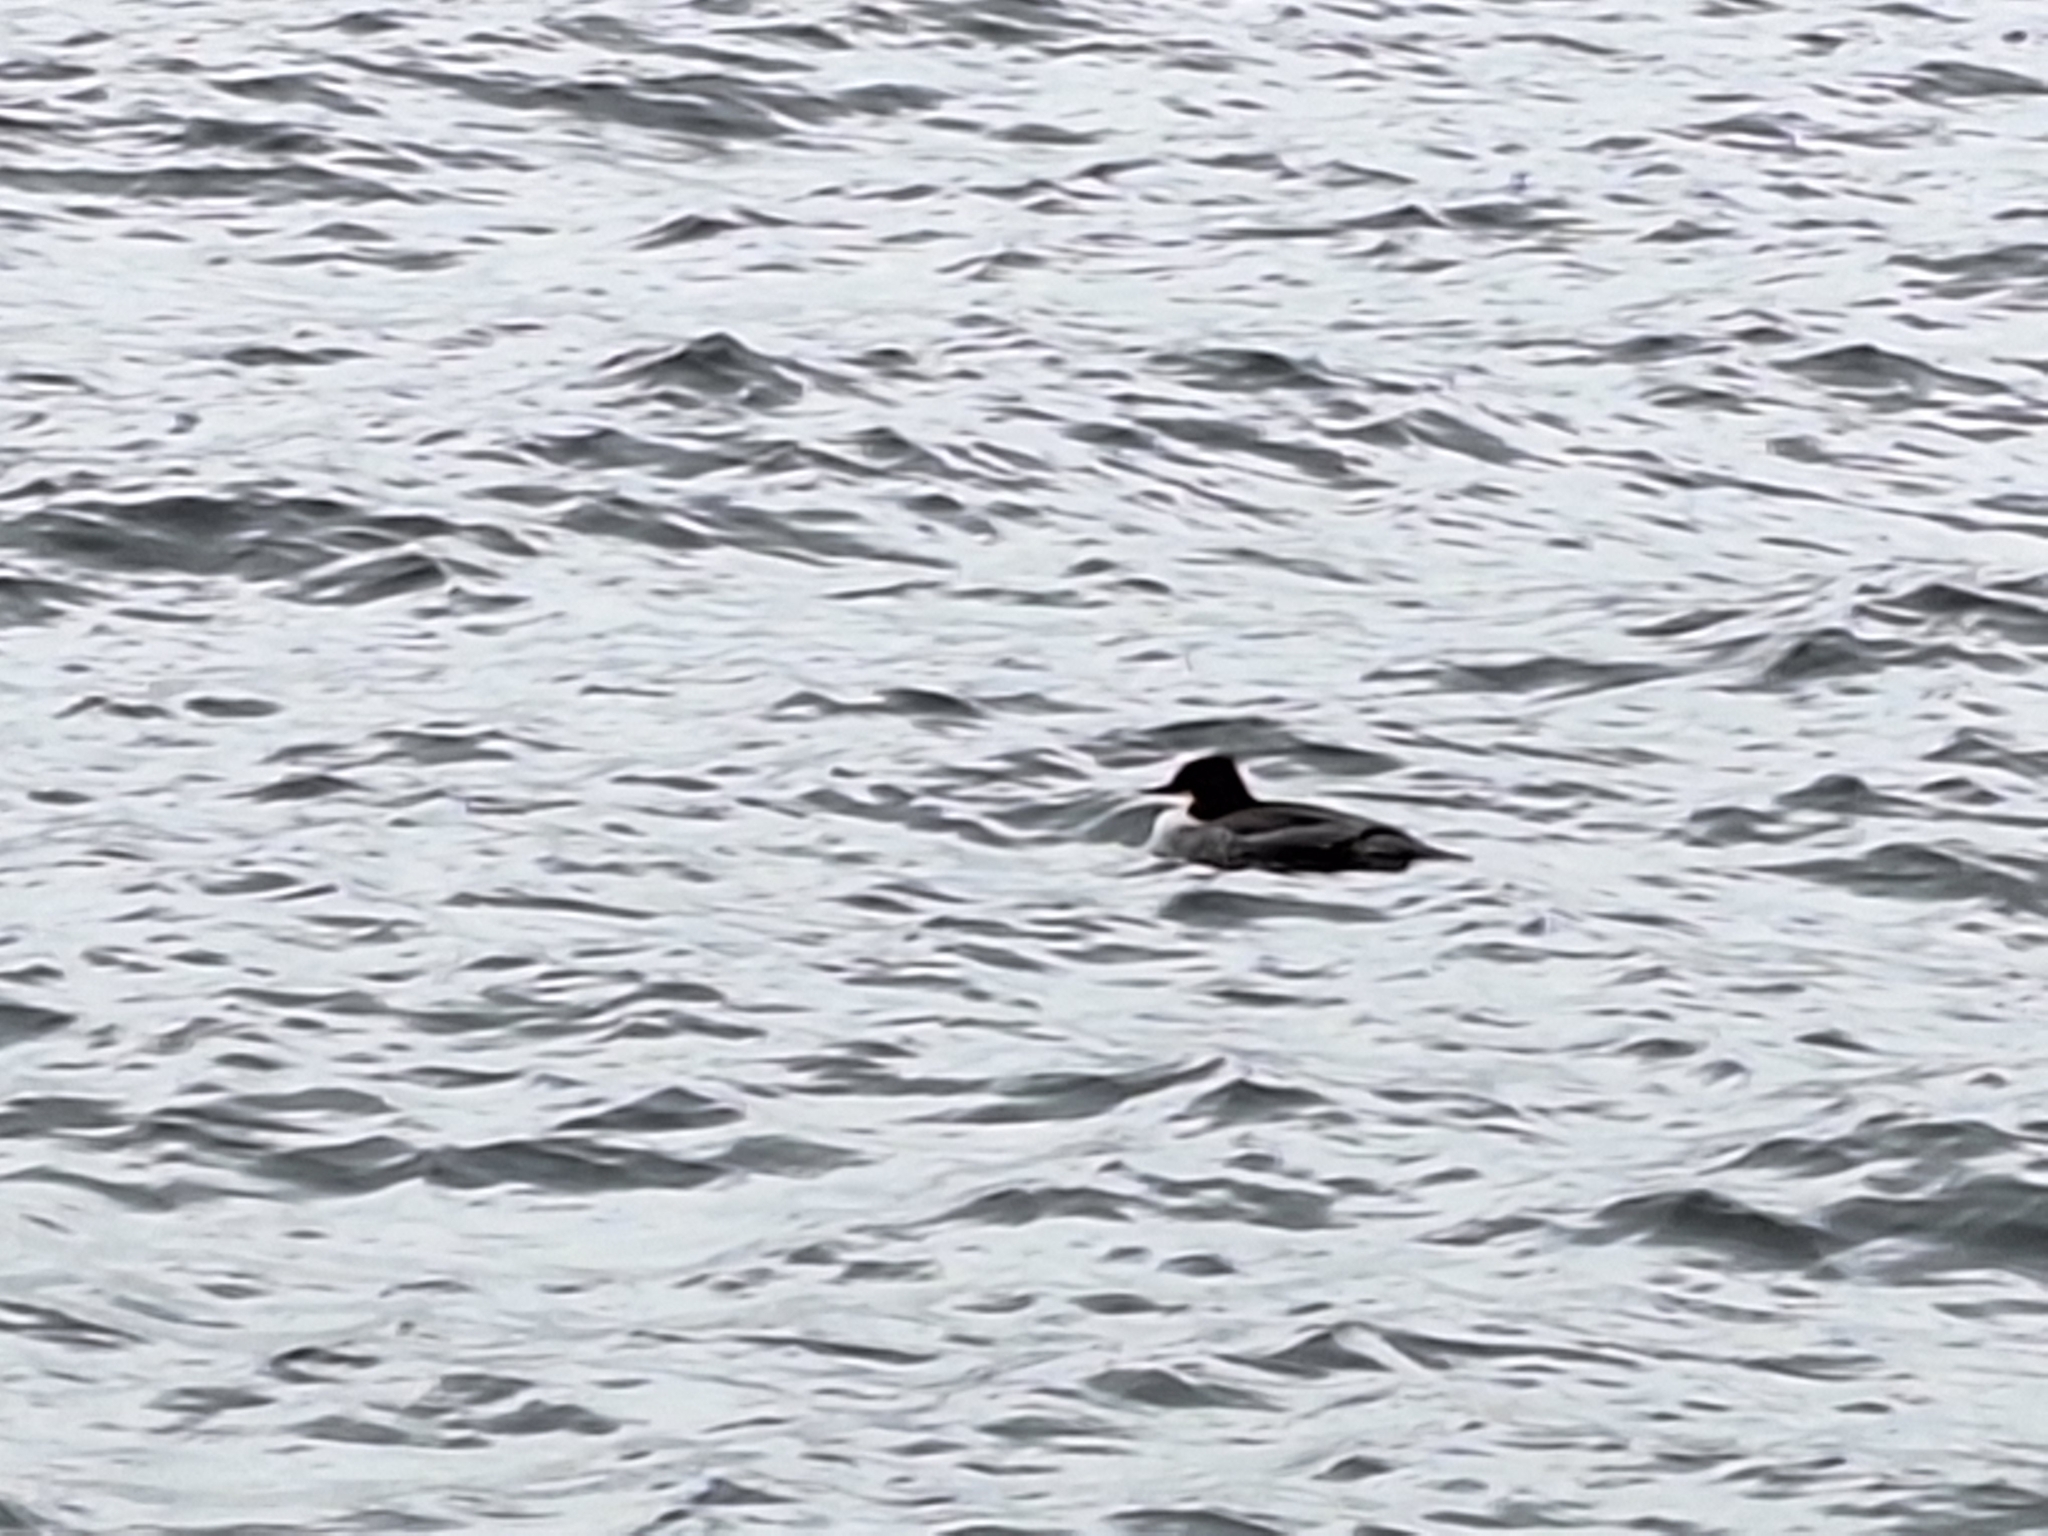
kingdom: Animalia
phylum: Chordata
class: Aves
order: Anseriformes
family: Anatidae
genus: Mergus
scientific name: Mergus merganser
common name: Common merganser
